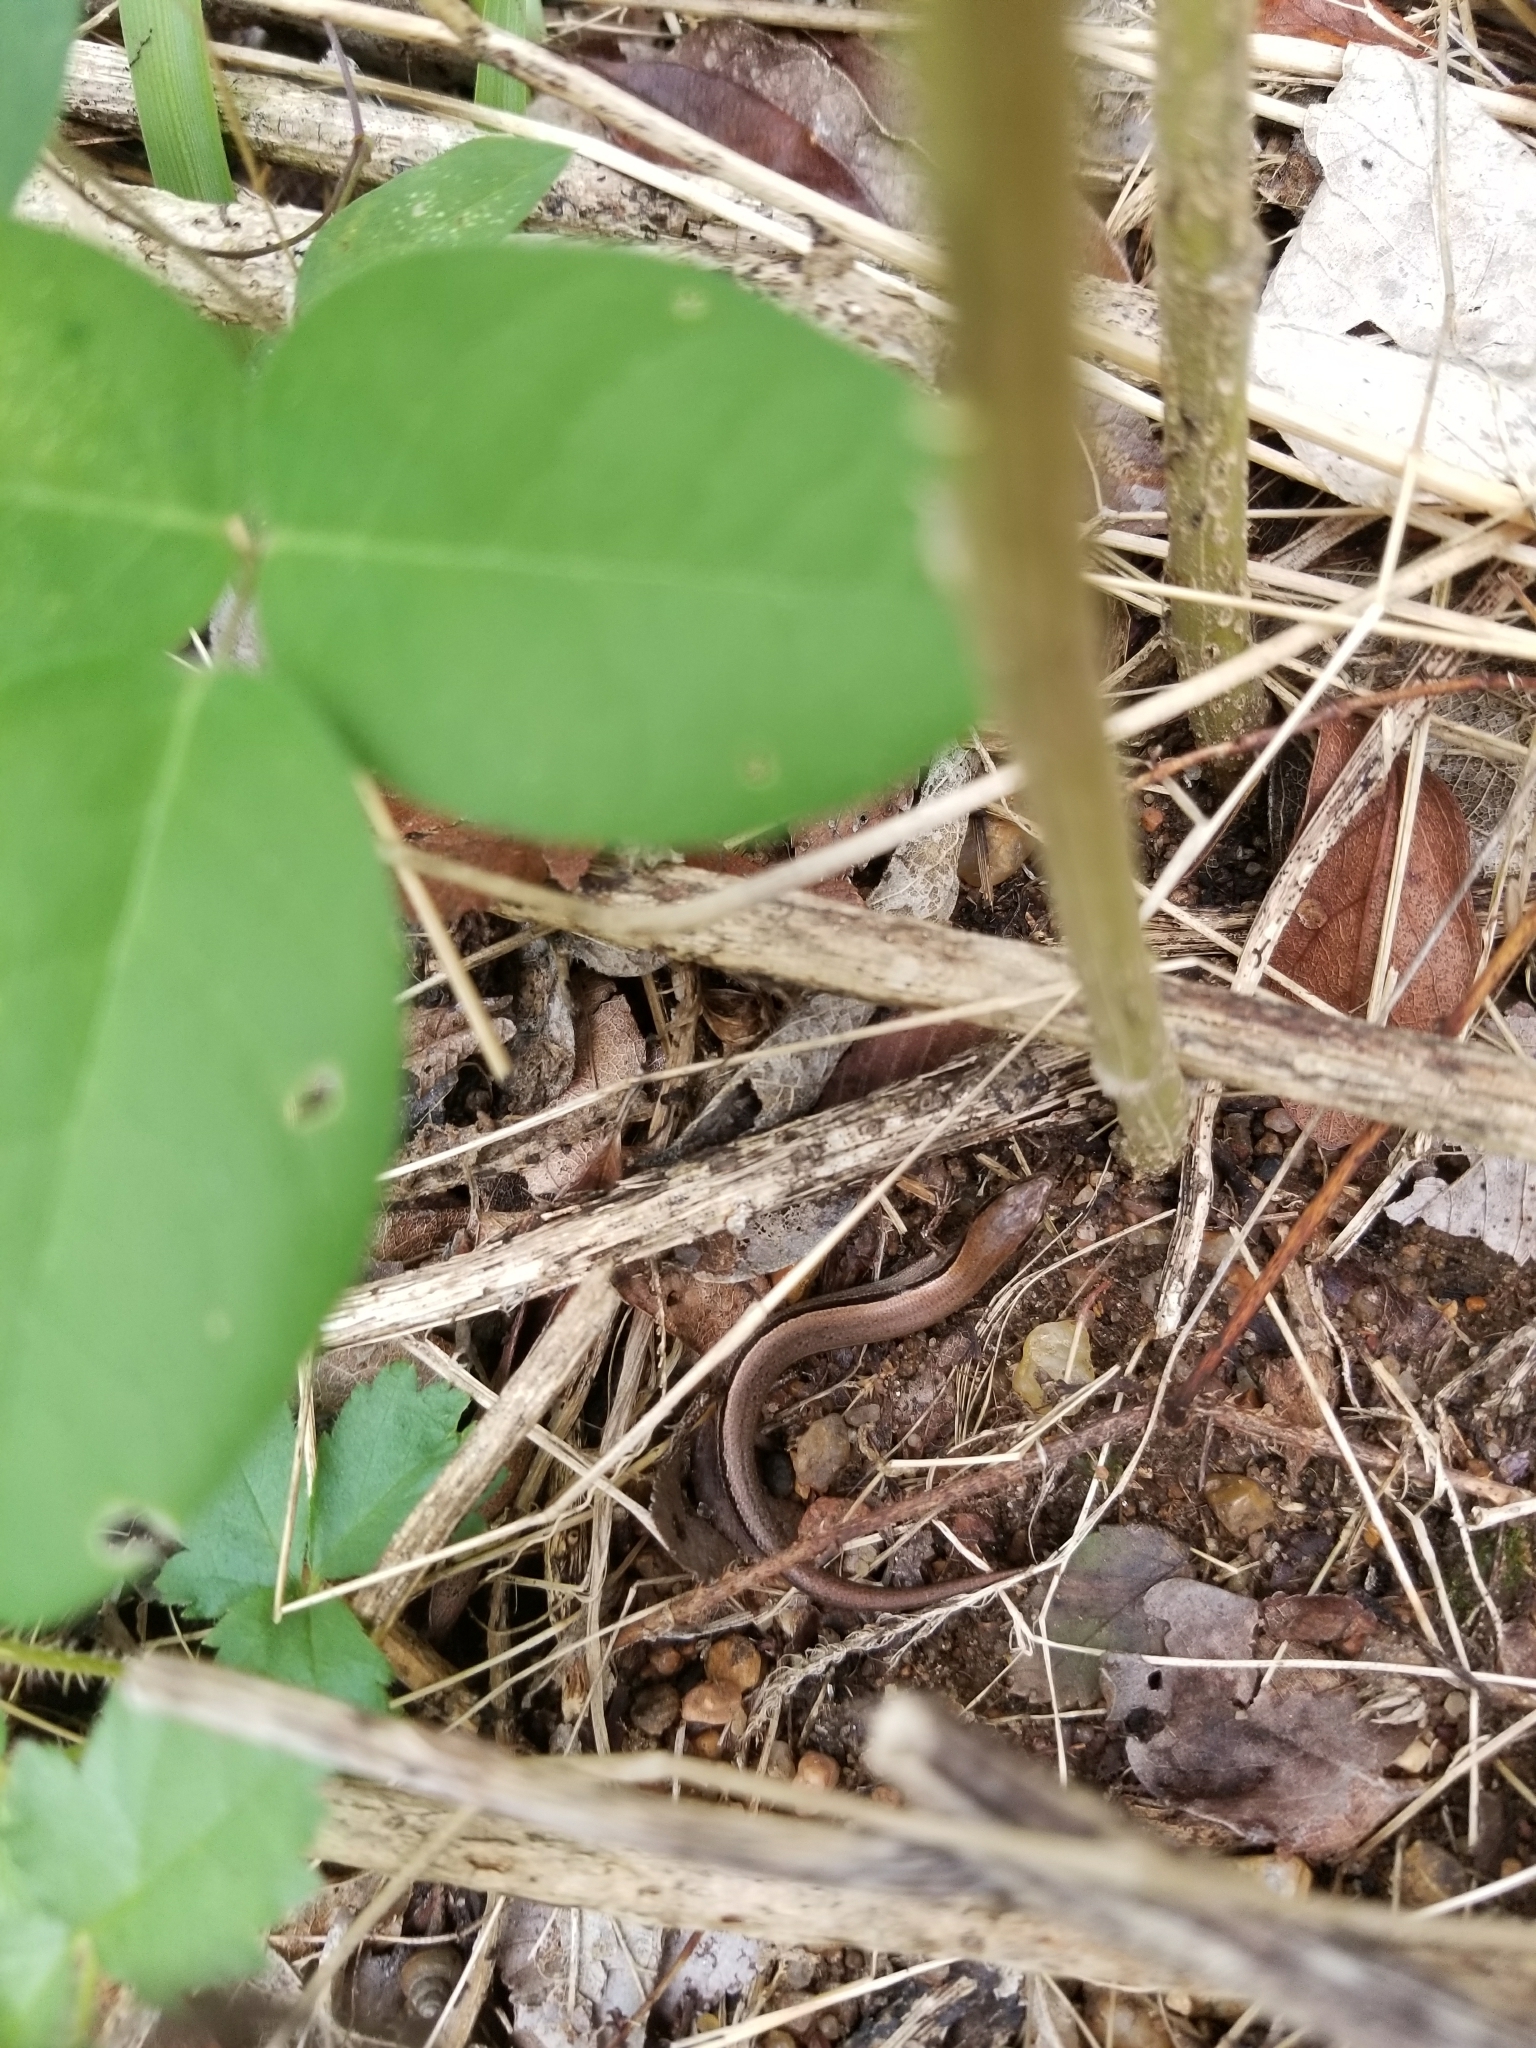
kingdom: Animalia
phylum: Chordata
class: Squamata
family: Scincidae
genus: Scincella
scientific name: Scincella lateralis
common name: Ground skink
